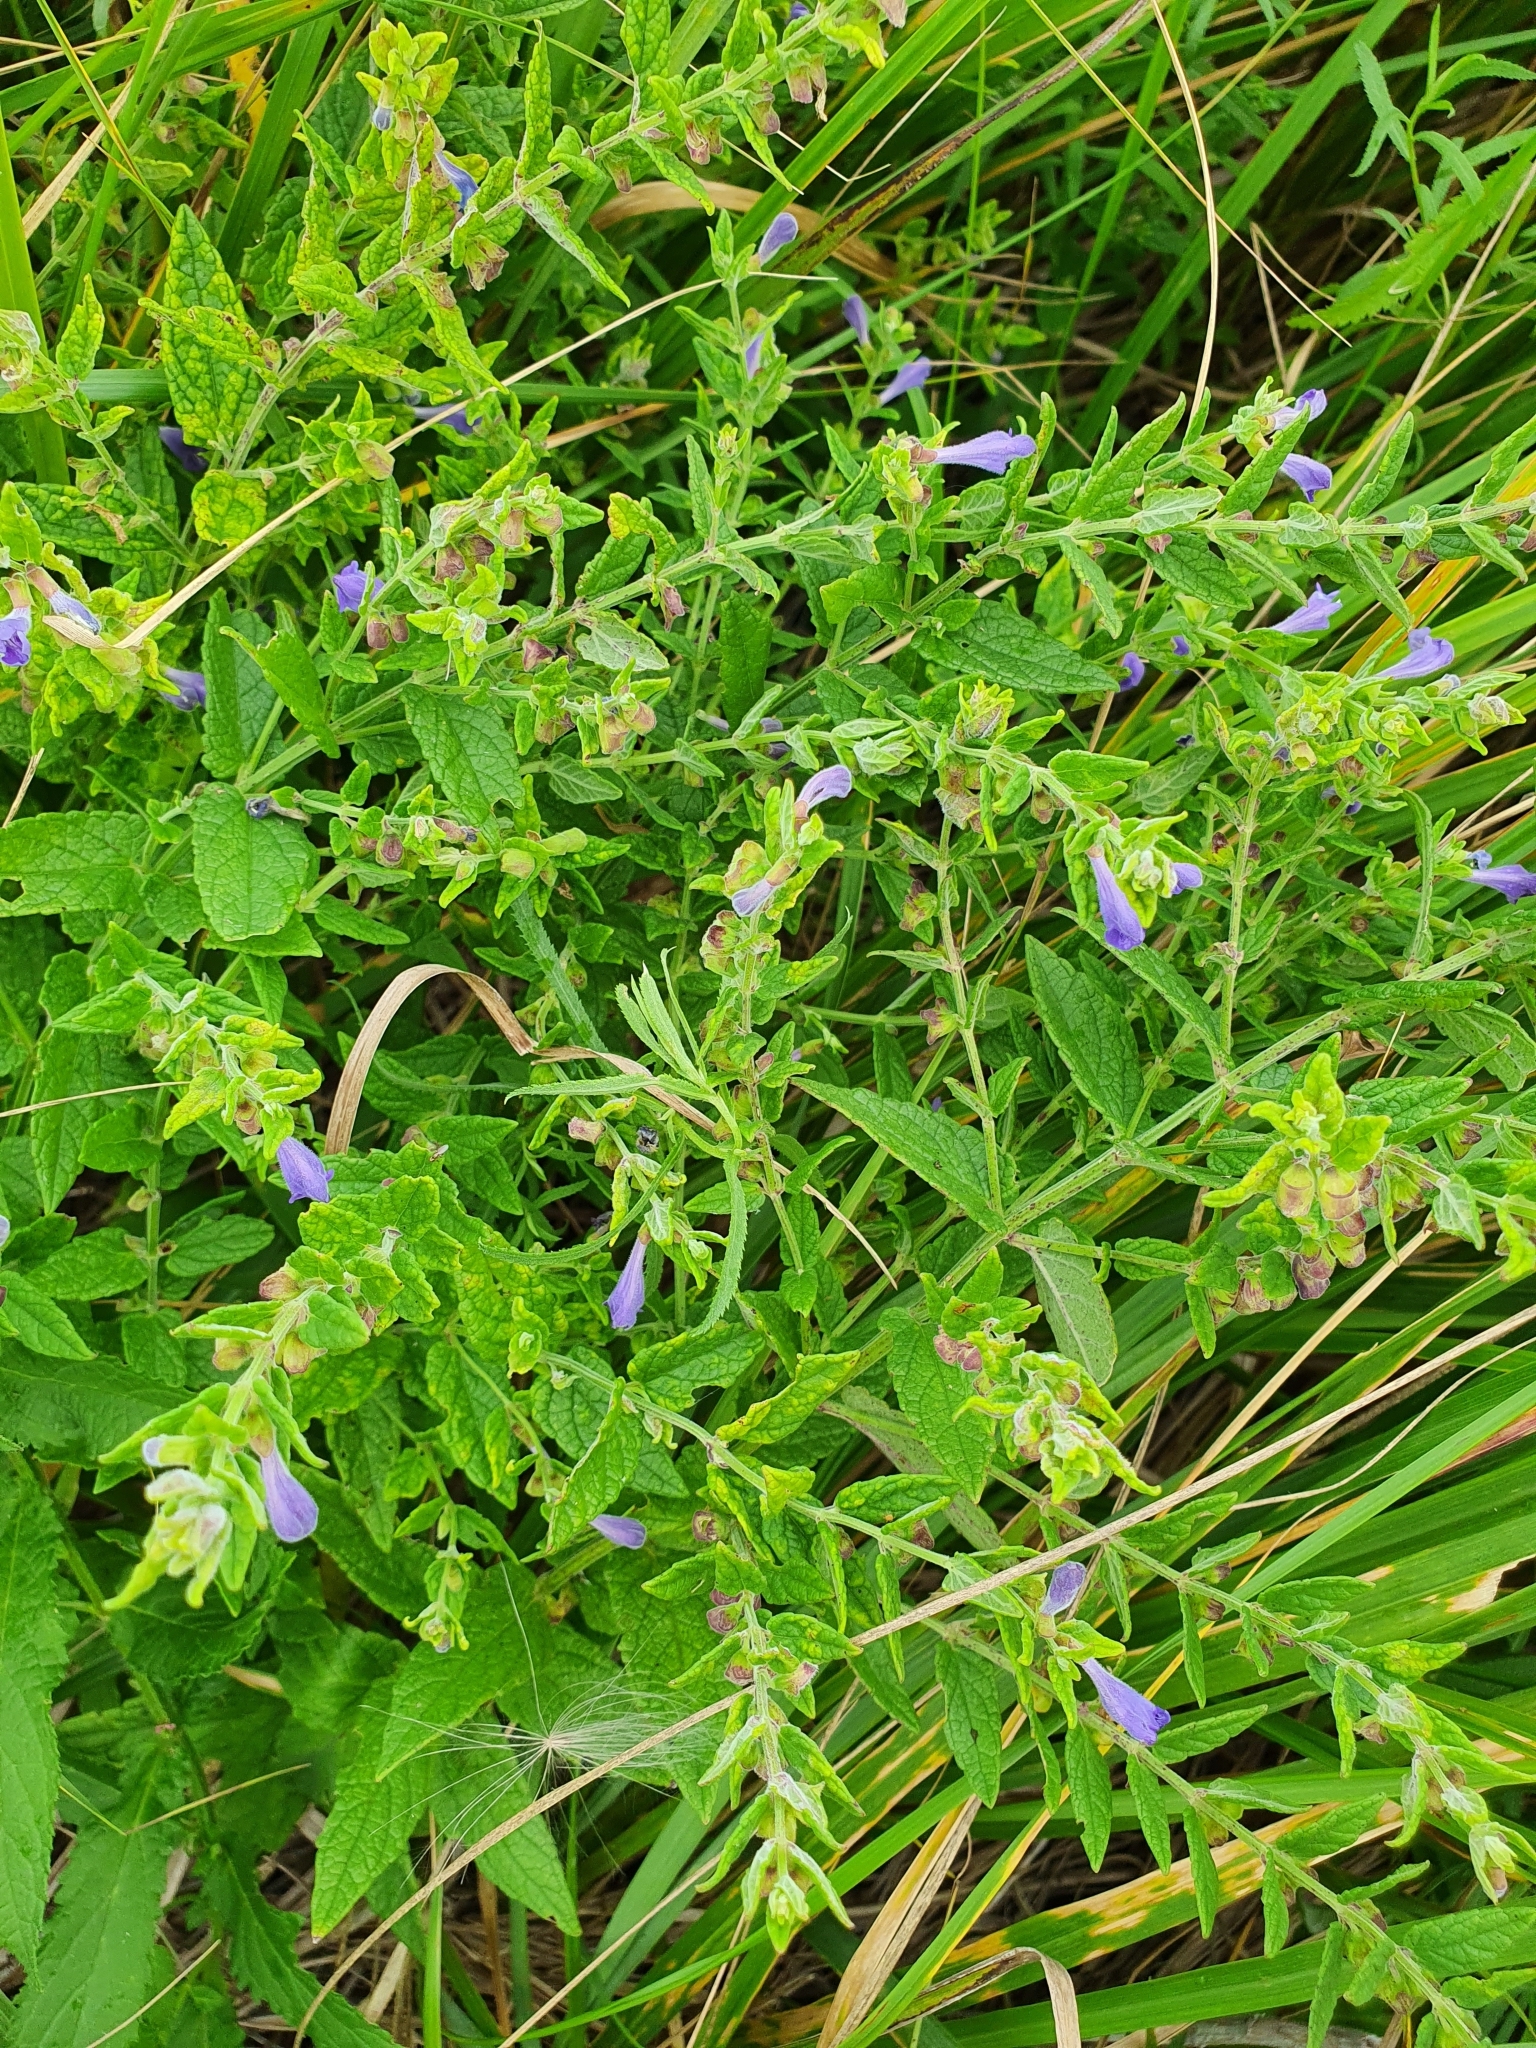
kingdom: Plantae
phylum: Tracheophyta
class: Magnoliopsida
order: Lamiales
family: Lamiaceae
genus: Scutellaria
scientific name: Scutellaria galericulata
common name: Skullcap
